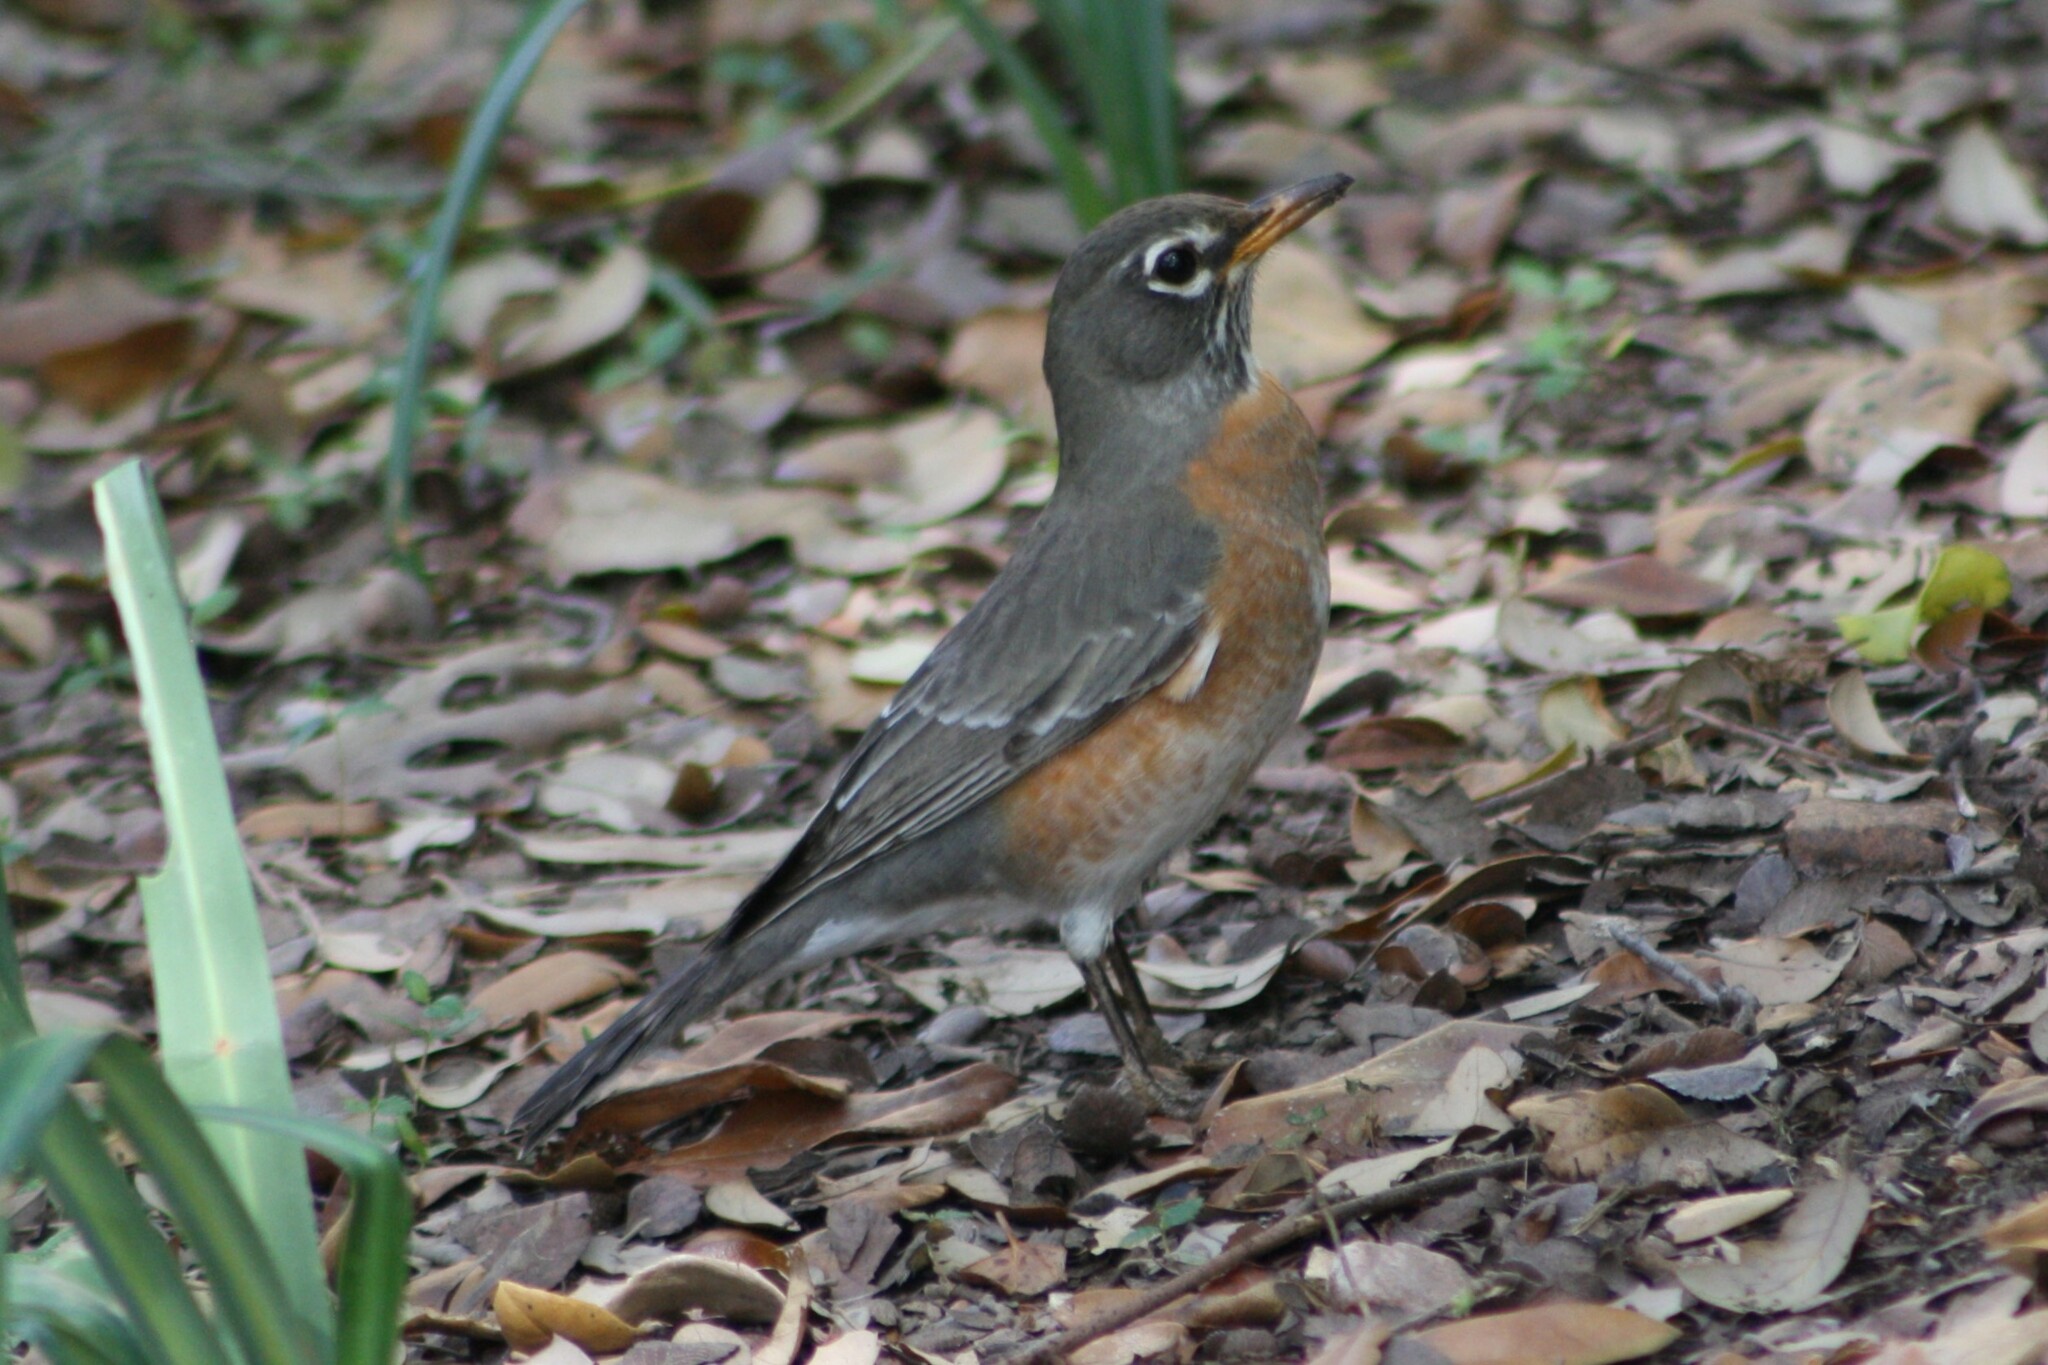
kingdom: Animalia
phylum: Chordata
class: Aves
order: Passeriformes
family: Turdidae
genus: Turdus
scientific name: Turdus migratorius
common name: American robin
